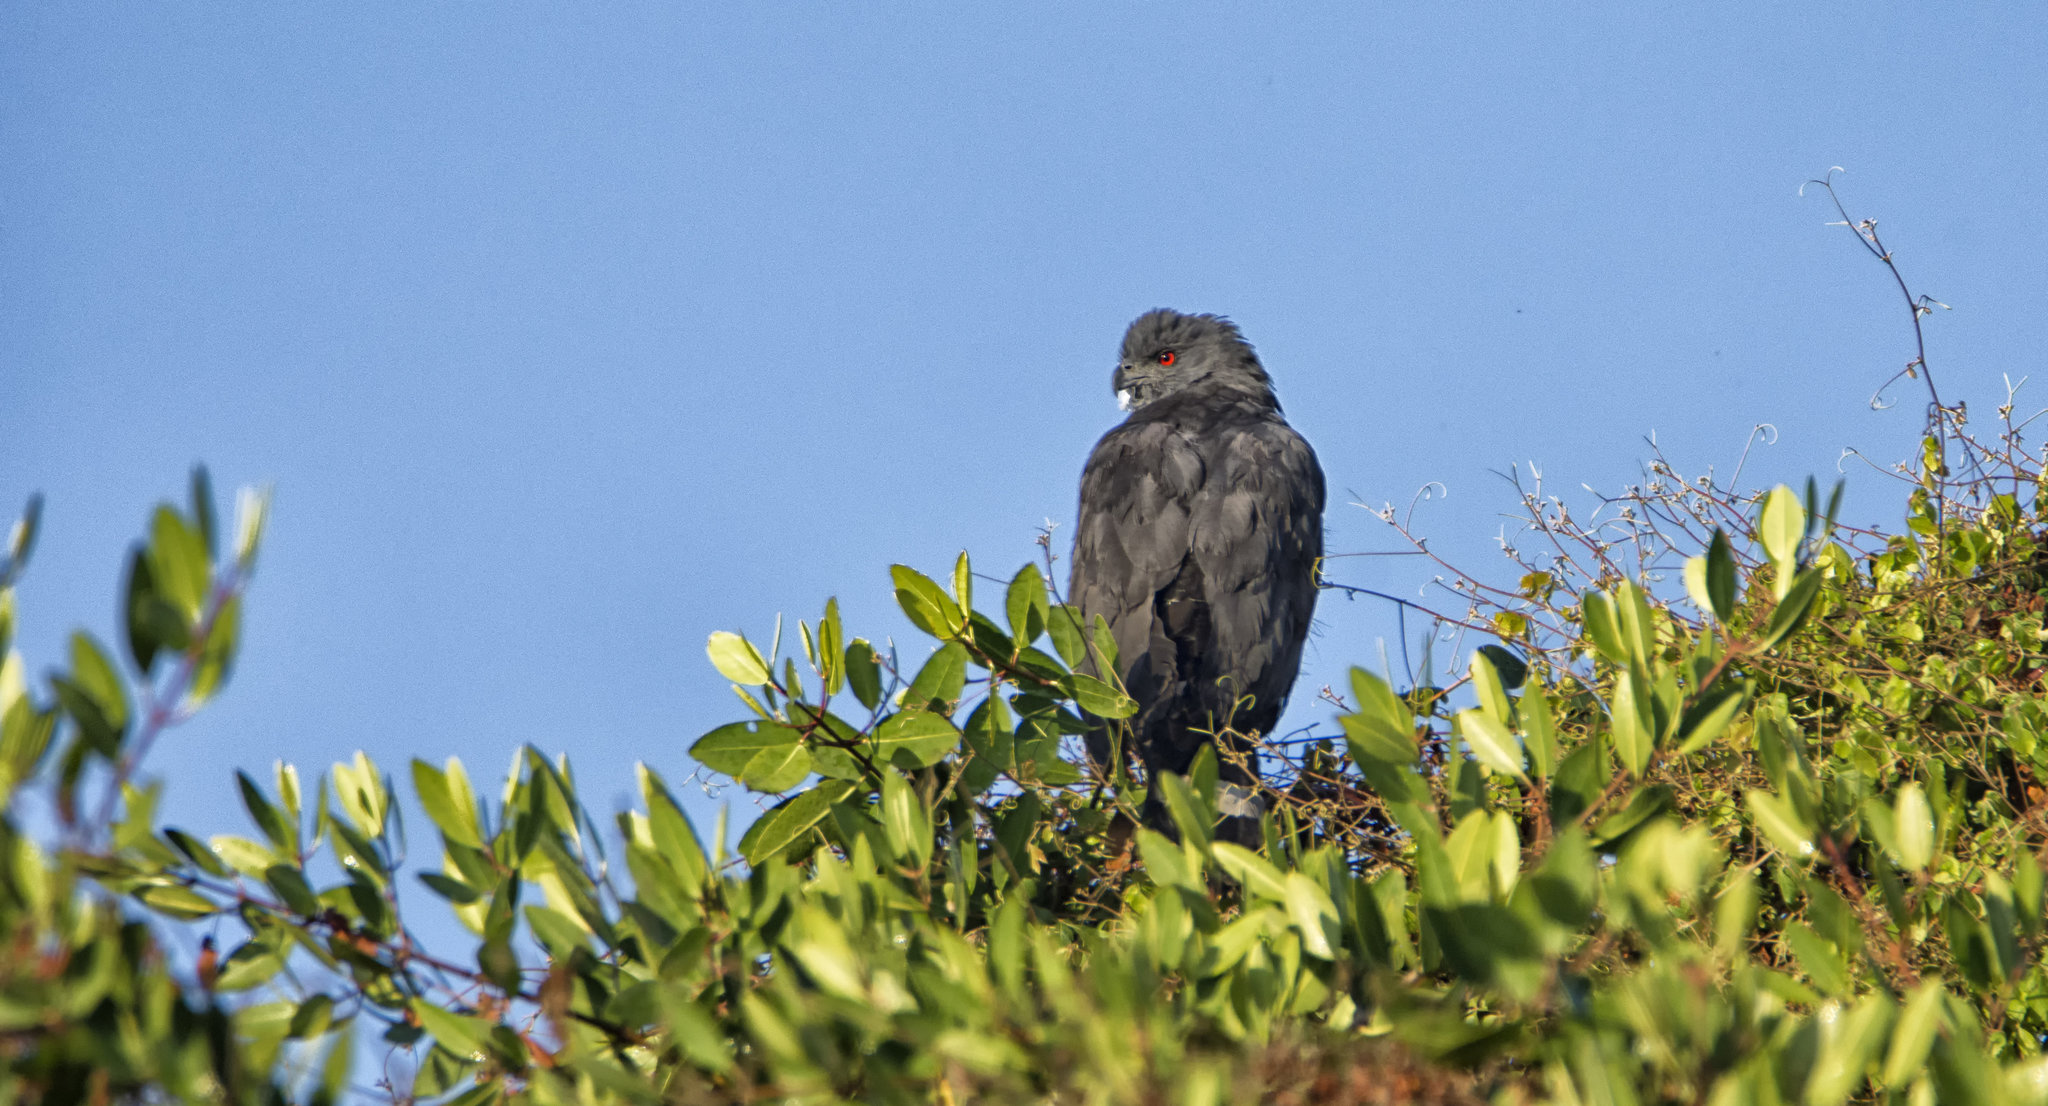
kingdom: Animalia
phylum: Chordata
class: Aves
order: Accipitriformes
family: Accipitridae
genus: Geranospiza
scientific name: Geranospiza caerulescens
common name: Crane hawk
